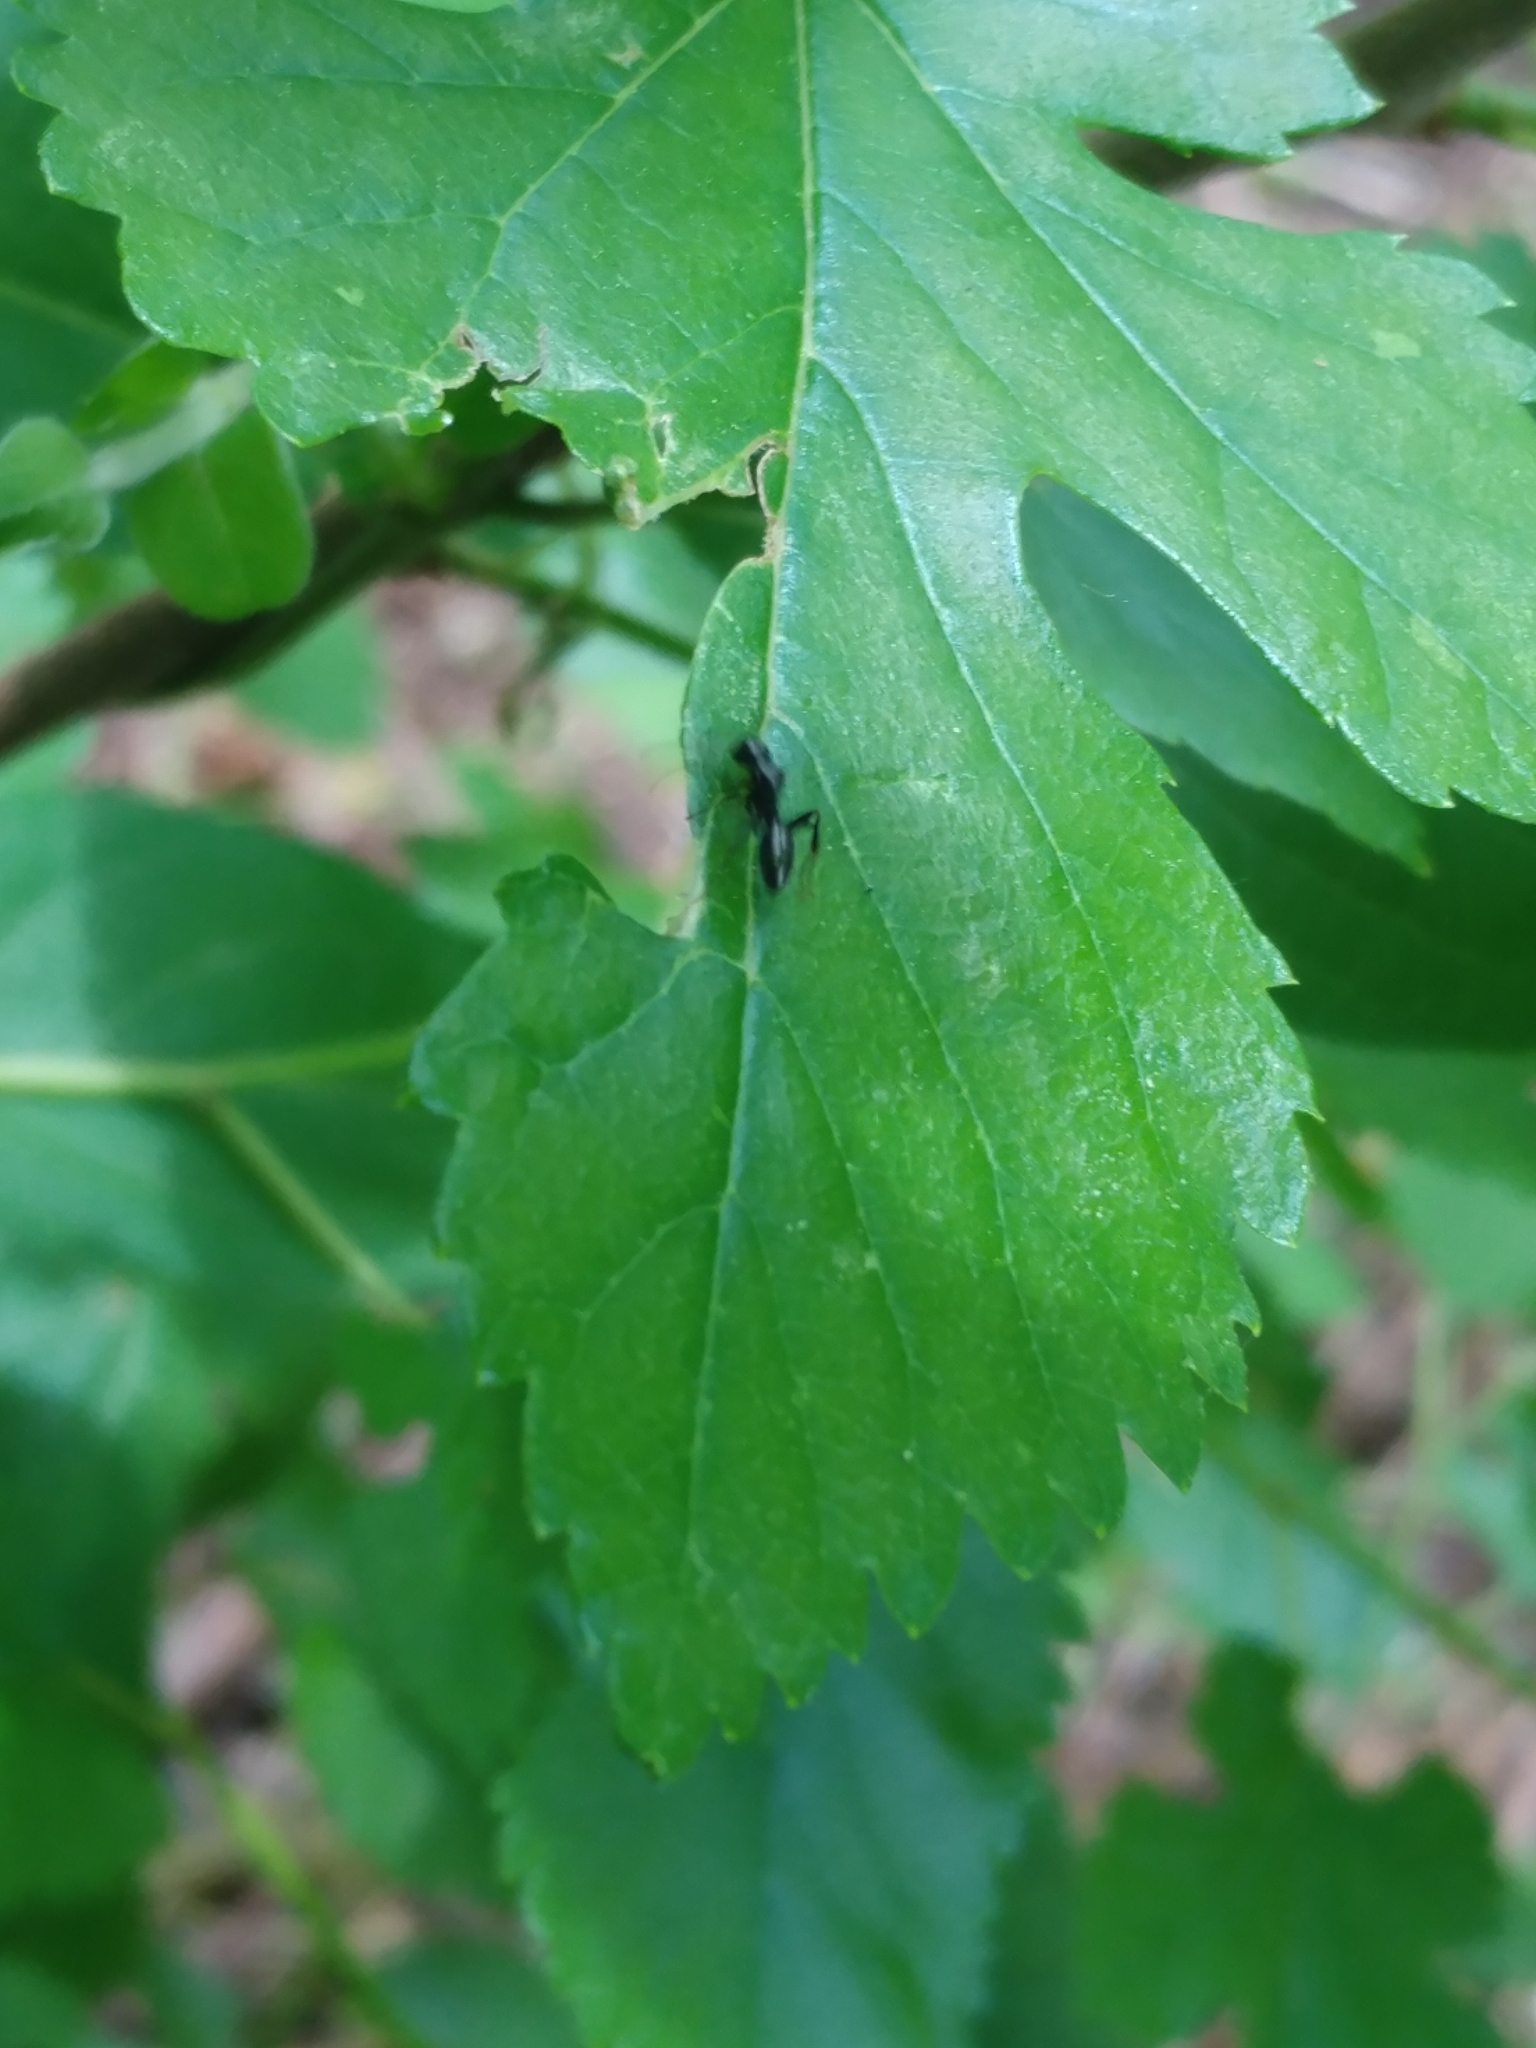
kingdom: Animalia
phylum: Arthropoda
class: Insecta
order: Hymenoptera
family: Formicidae
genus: Camponotus
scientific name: Camponotus nearcticus
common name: Smaller carpenter ant
